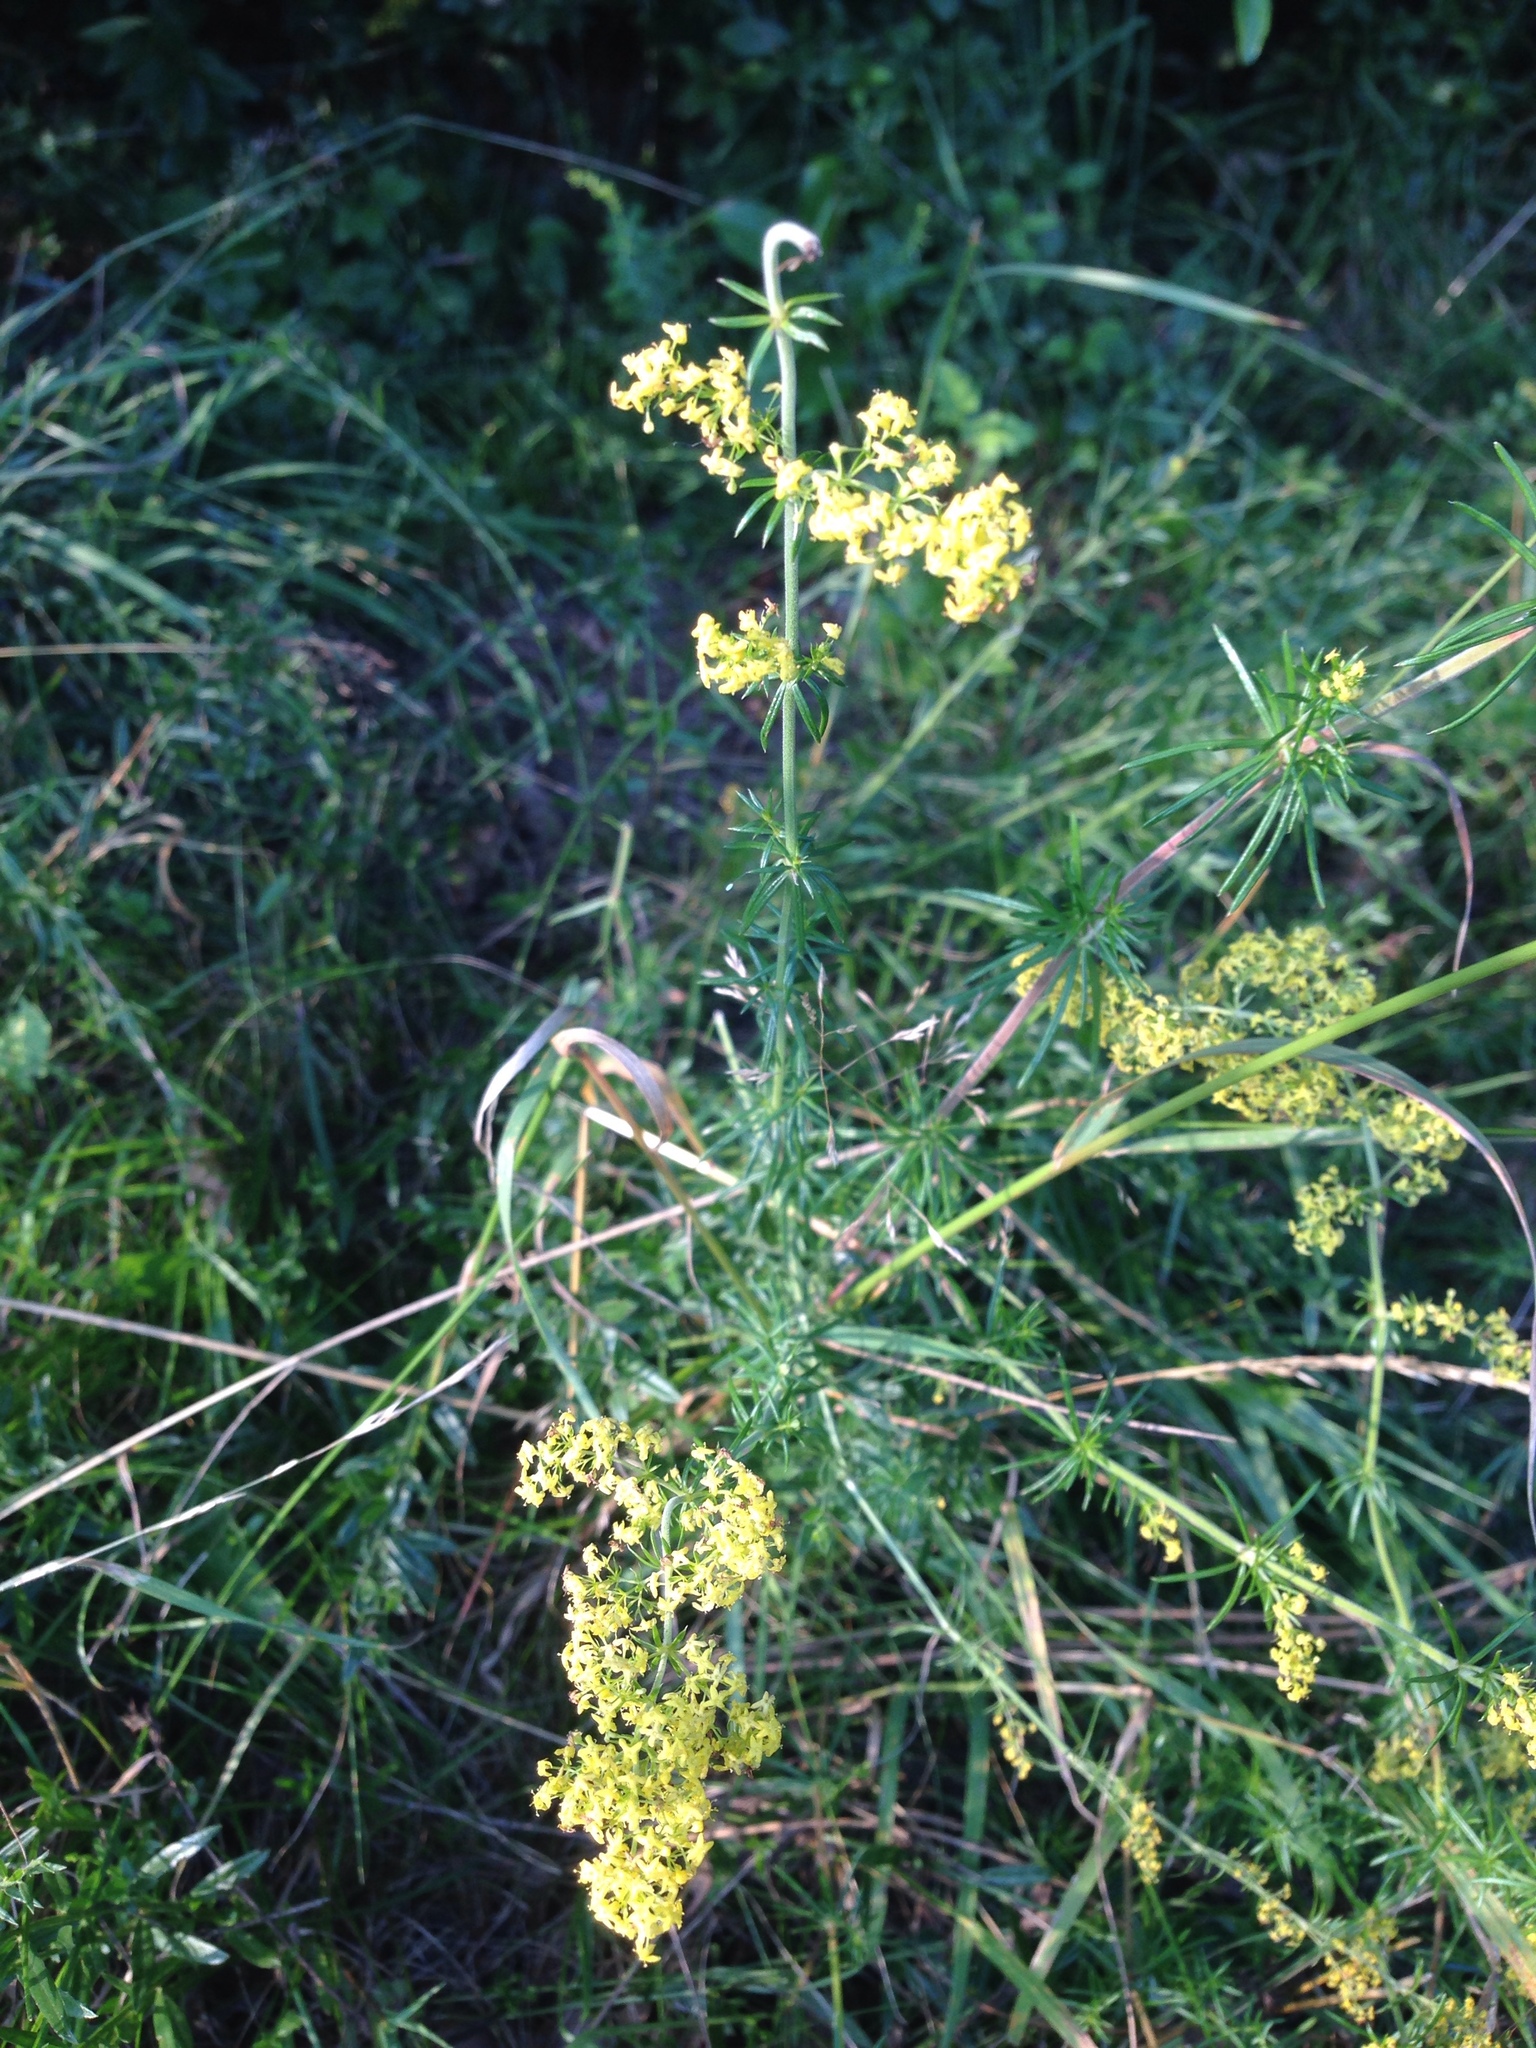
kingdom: Plantae
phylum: Tracheophyta
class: Magnoliopsida
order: Gentianales
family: Rubiaceae
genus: Galium
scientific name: Galium verum
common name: Lady's bedstraw
